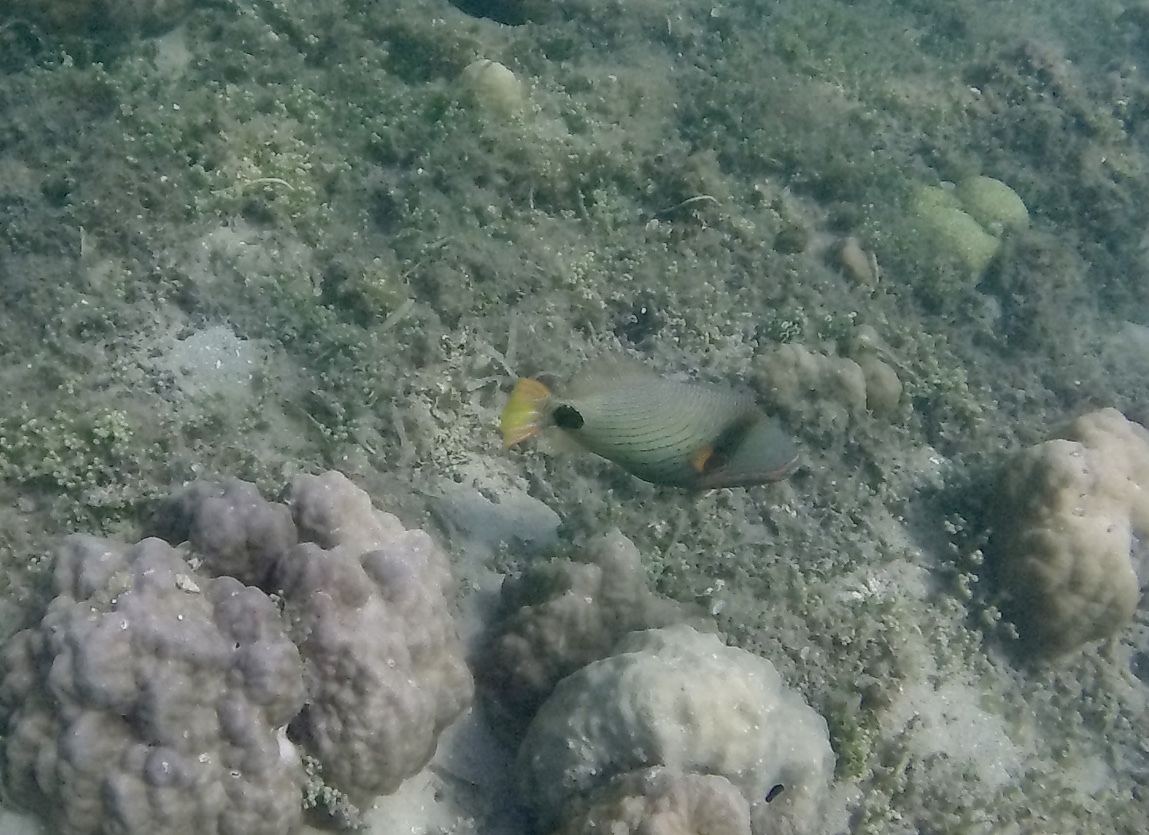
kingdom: Animalia
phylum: Chordata
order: Tetraodontiformes
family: Balistidae
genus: Balistapus
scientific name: Balistapus undulatus
